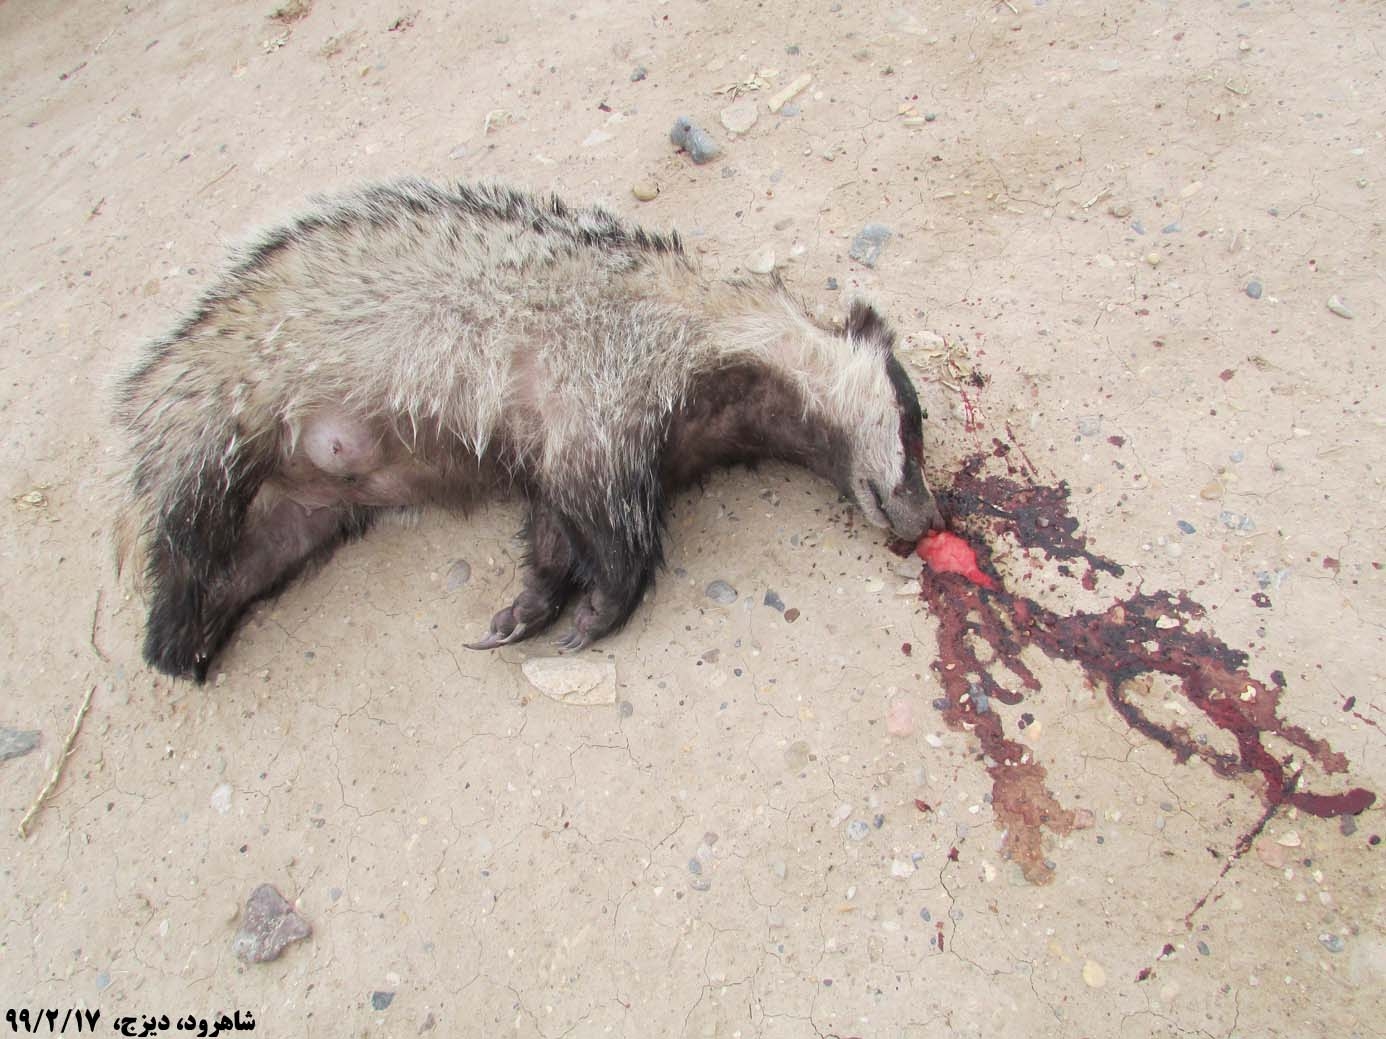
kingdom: Animalia
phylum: Chordata
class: Mammalia
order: Carnivora
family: Mustelidae
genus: Meles
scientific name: Meles canescens
